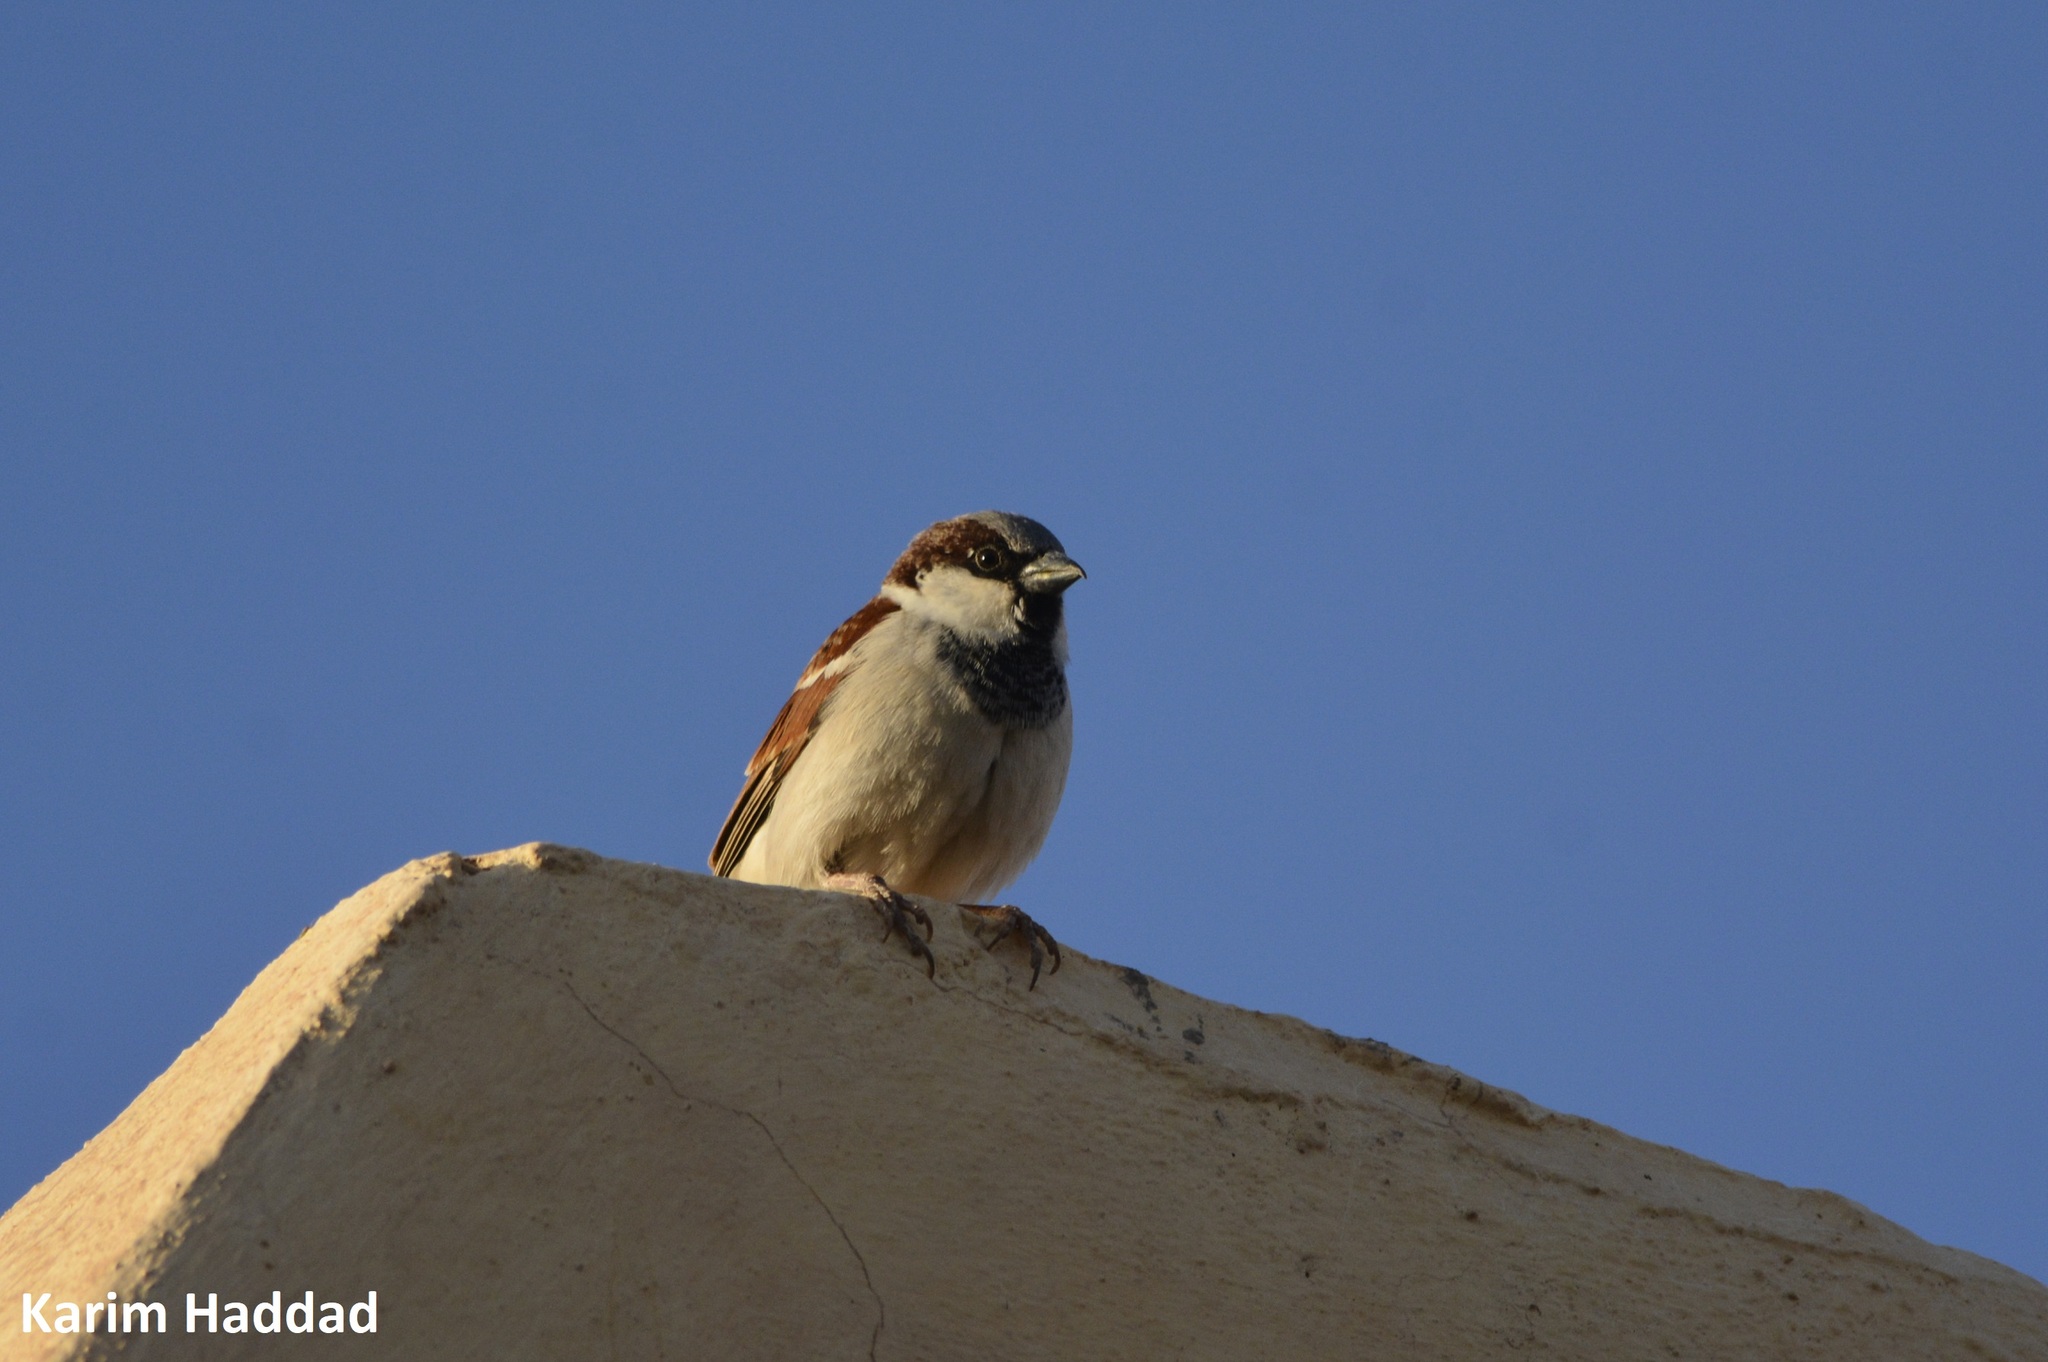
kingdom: Animalia
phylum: Chordata
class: Aves
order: Passeriformes
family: Passeridae
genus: Passer
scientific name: Passer domesticus
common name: House sparrow
